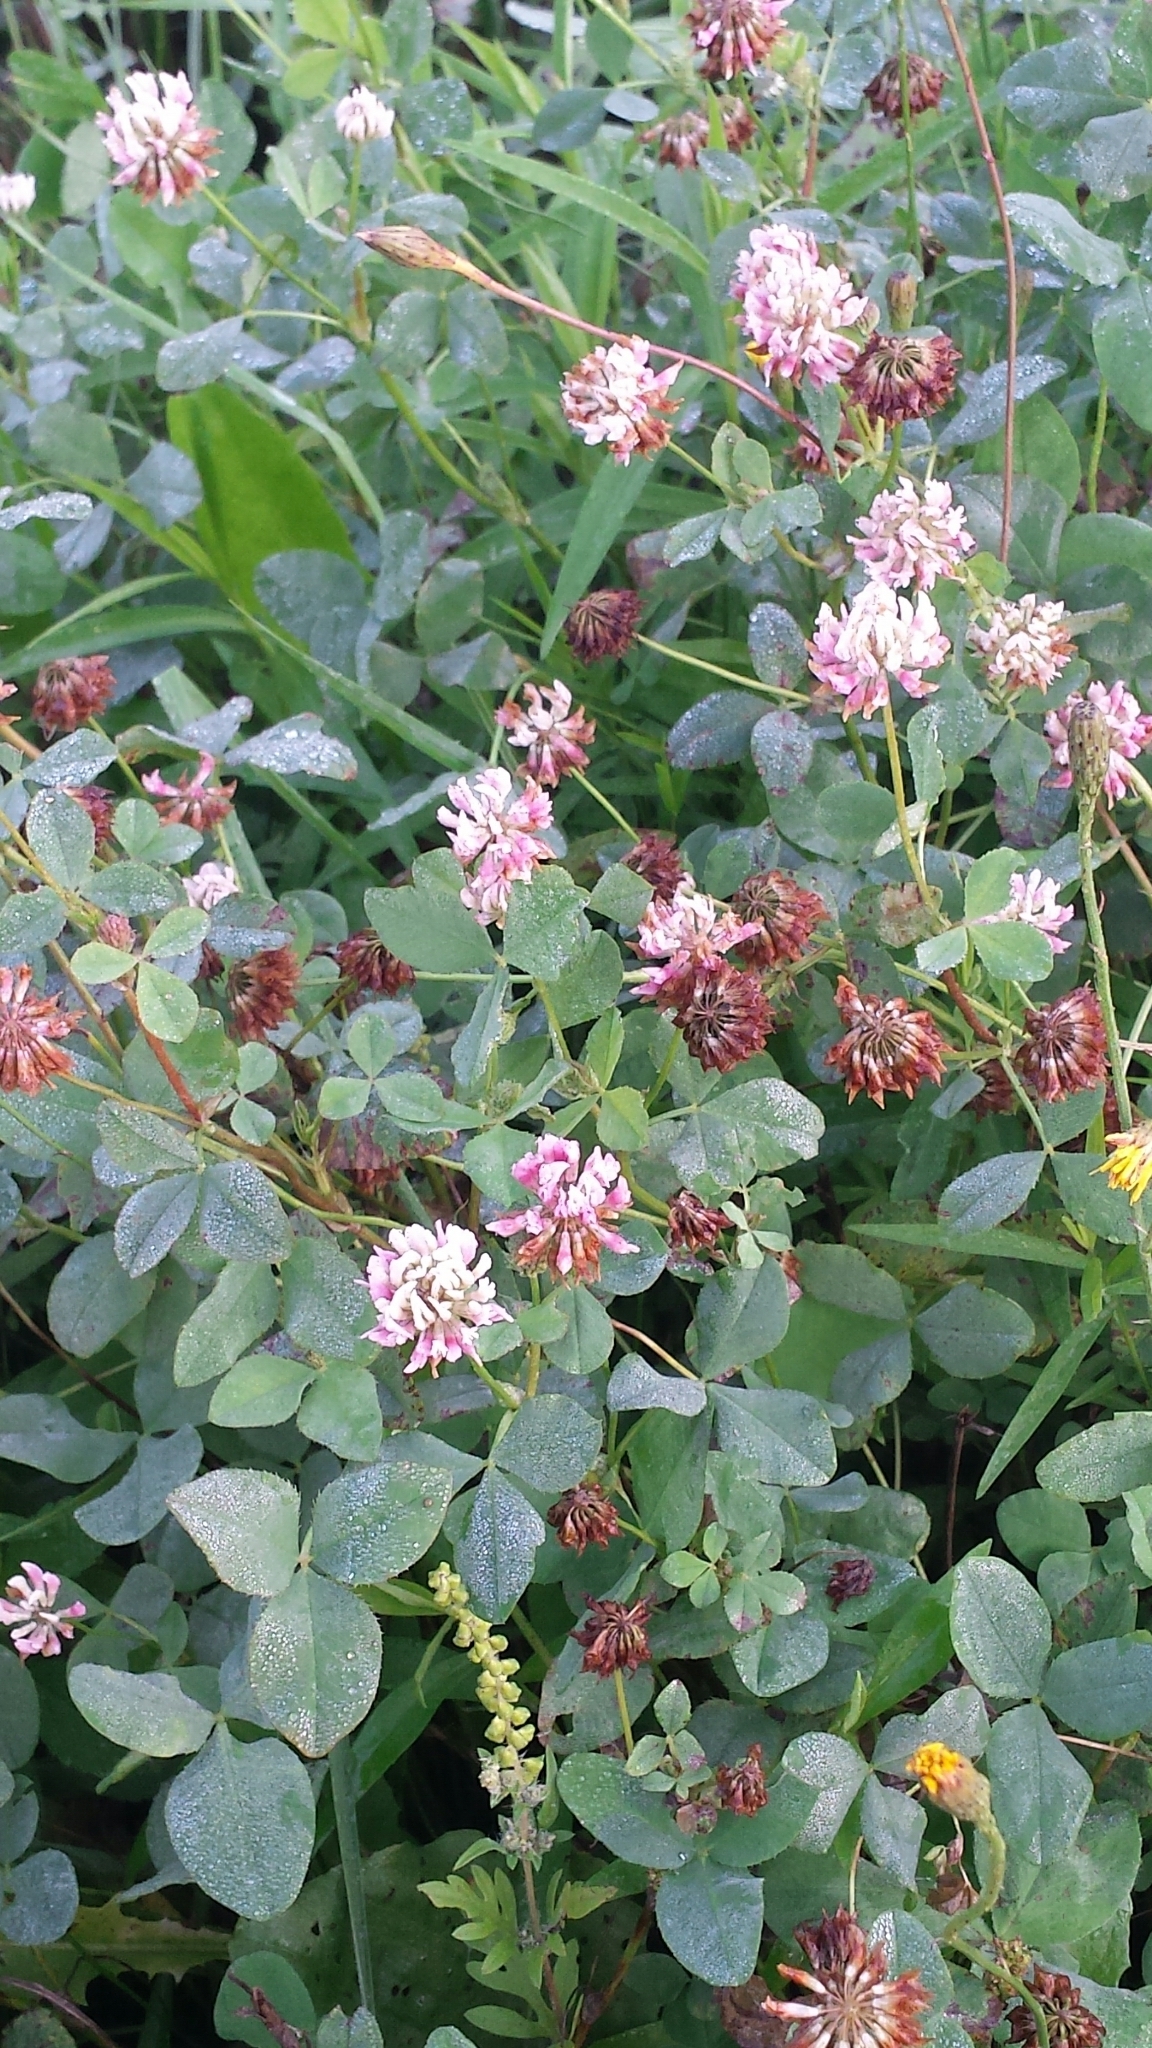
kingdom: Plantae
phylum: Tracheophyta
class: Magnoliopsida
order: Fabales
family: Fabaceae
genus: Trifolium
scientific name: Trifolium hybridum
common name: Alsike clover
